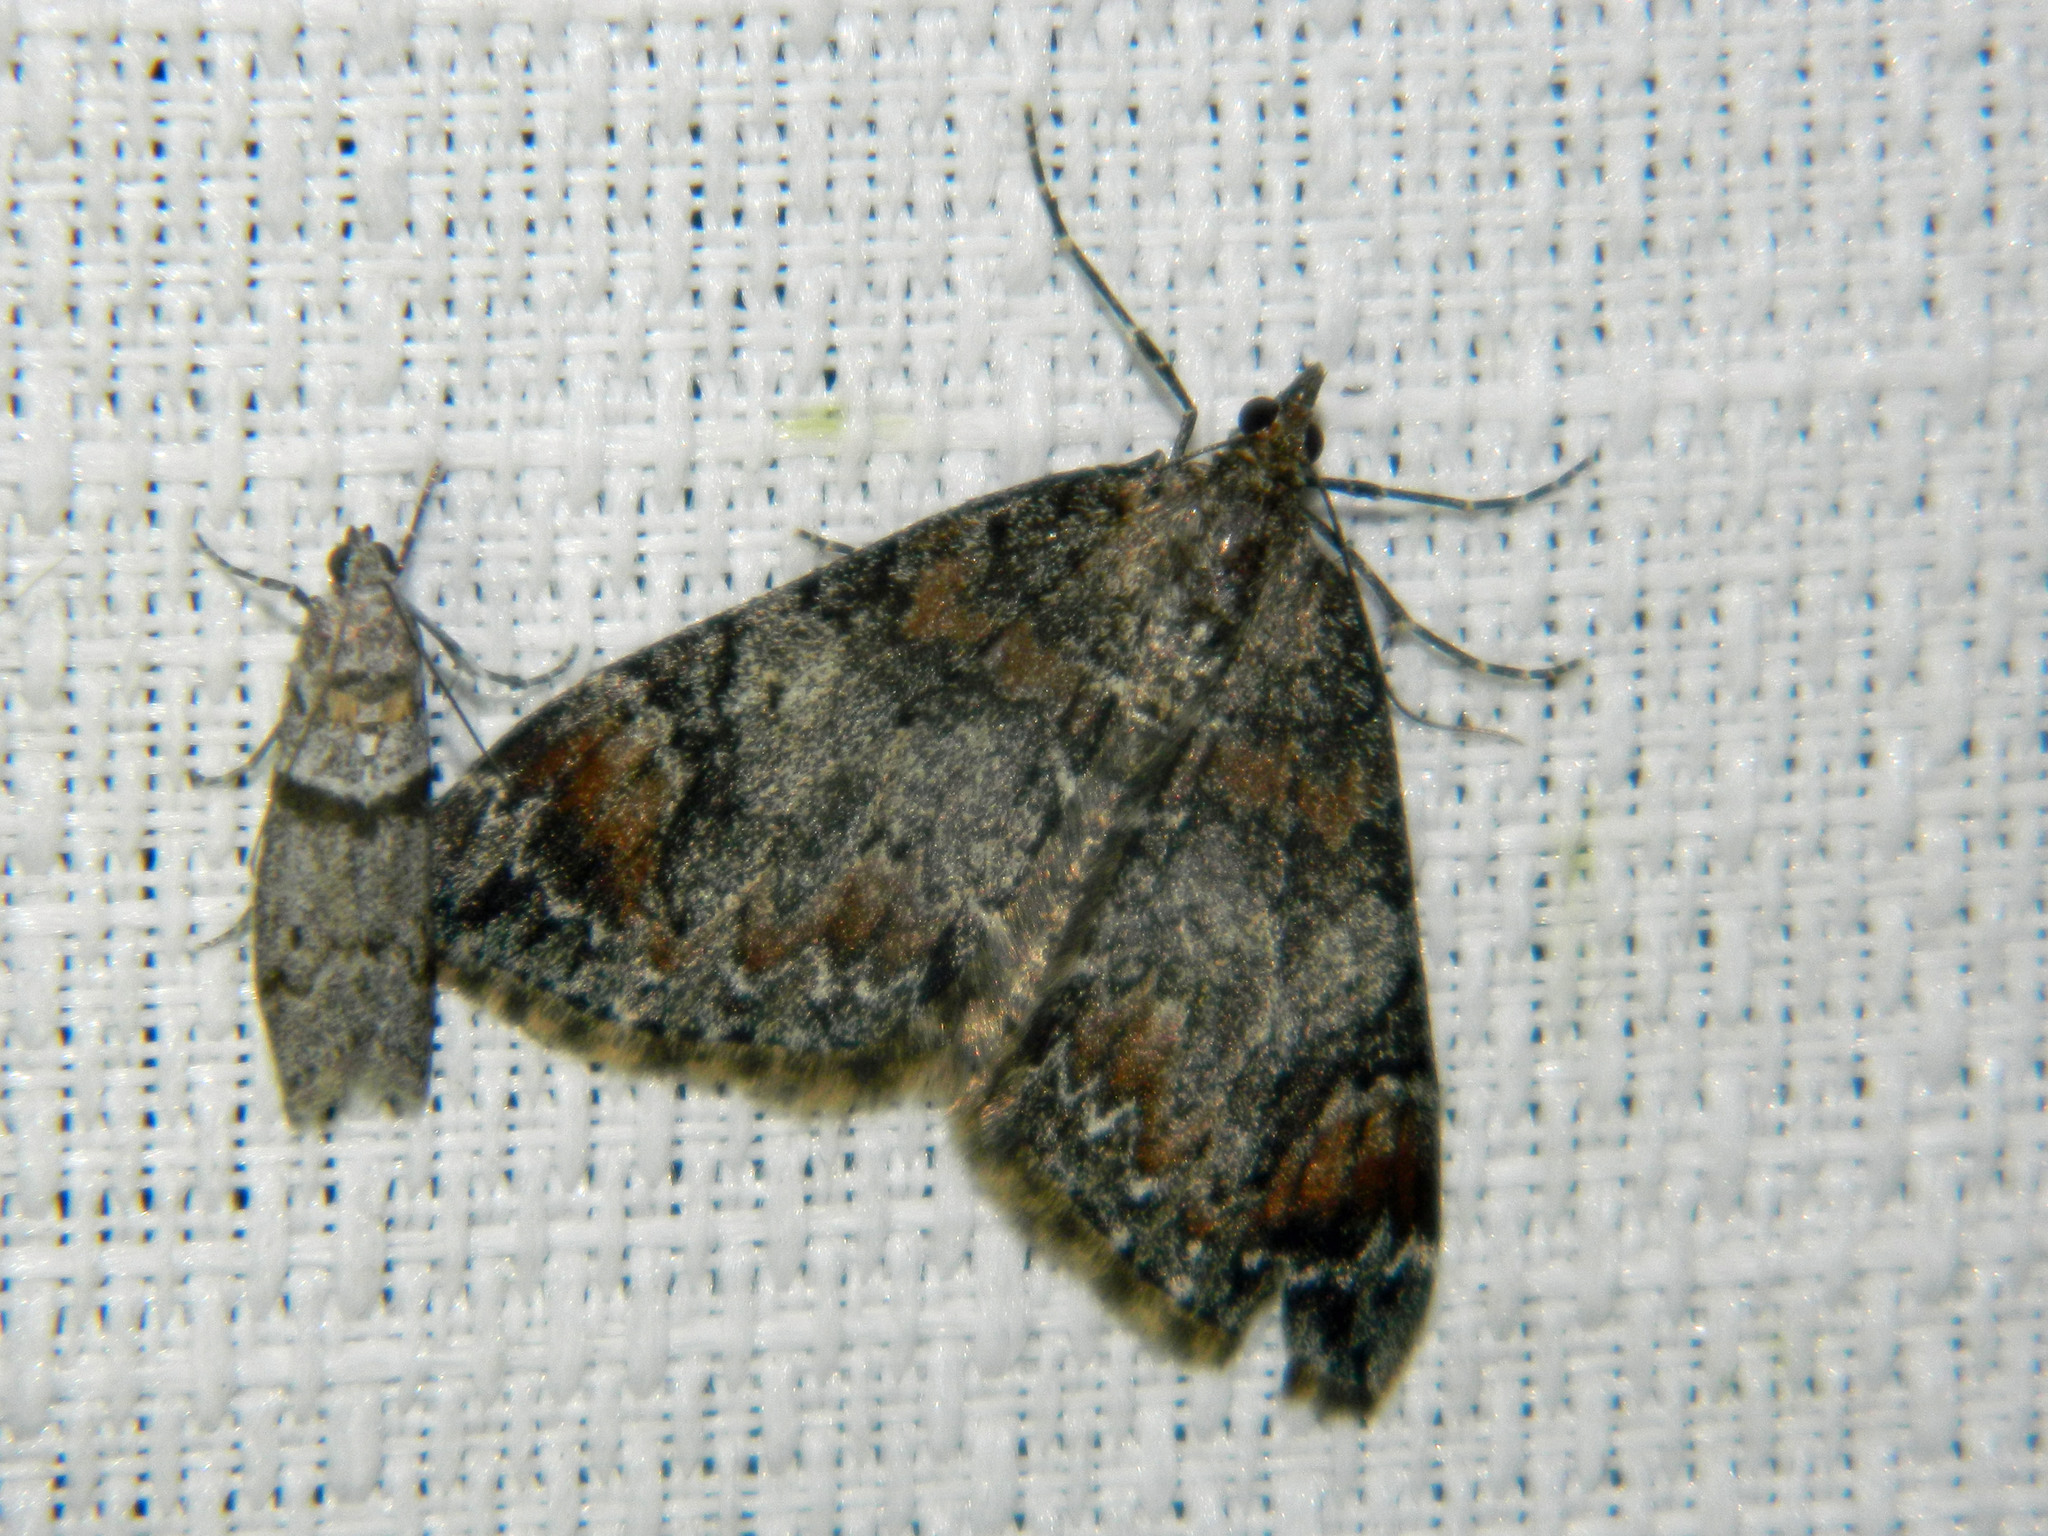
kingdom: Animalia
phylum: Arthropoda
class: Insecta
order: Lepidoptera
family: Pyralidae
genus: Myelopsis
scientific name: Myelopsis minutularia
